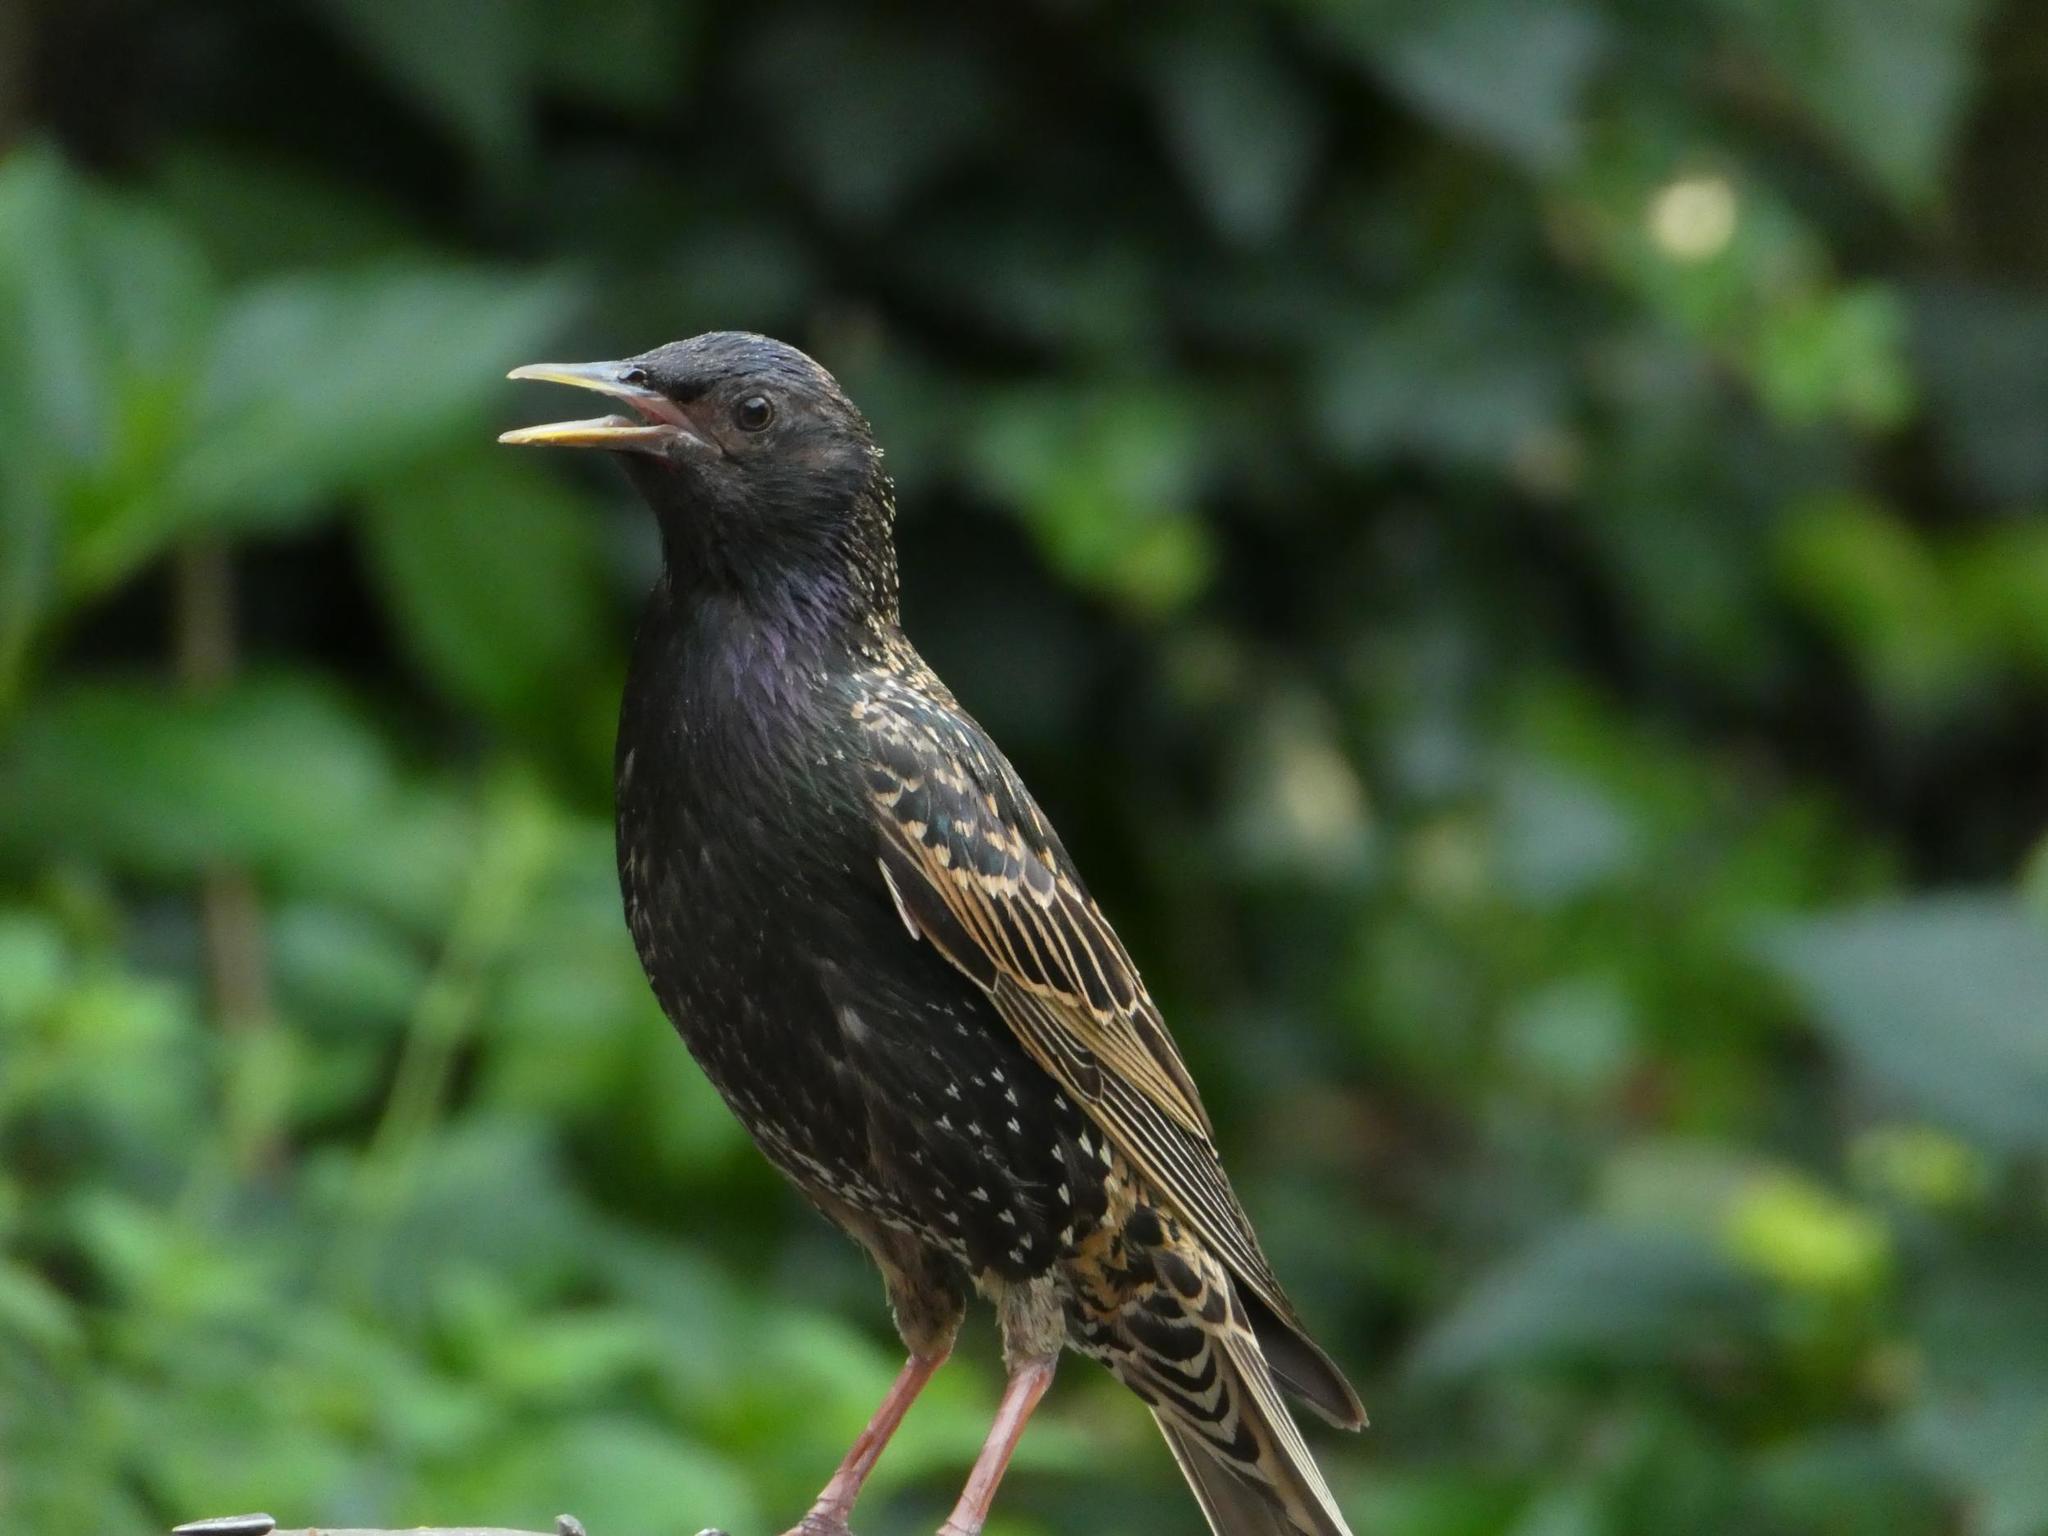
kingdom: Animalia
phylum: Chordata
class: Aves
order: Passeriformes
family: Sturnidae
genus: Sturnus
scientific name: Sturnus vulgaris
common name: Common starling
